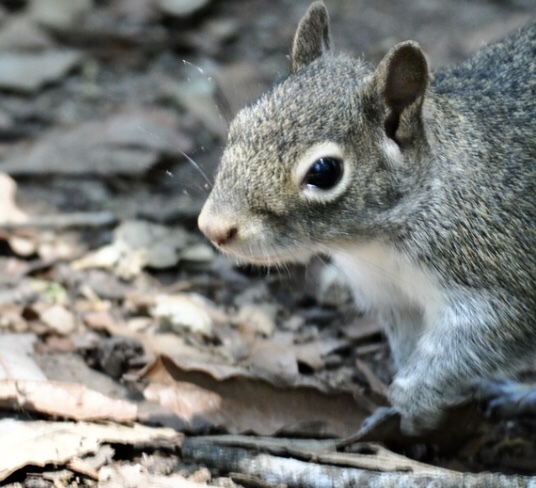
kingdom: Animalia
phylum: Chordata
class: Mammalia
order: Rodentia
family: Sciuridae
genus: Sciurus
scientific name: Sciurus alleni
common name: Allen's squirrel
